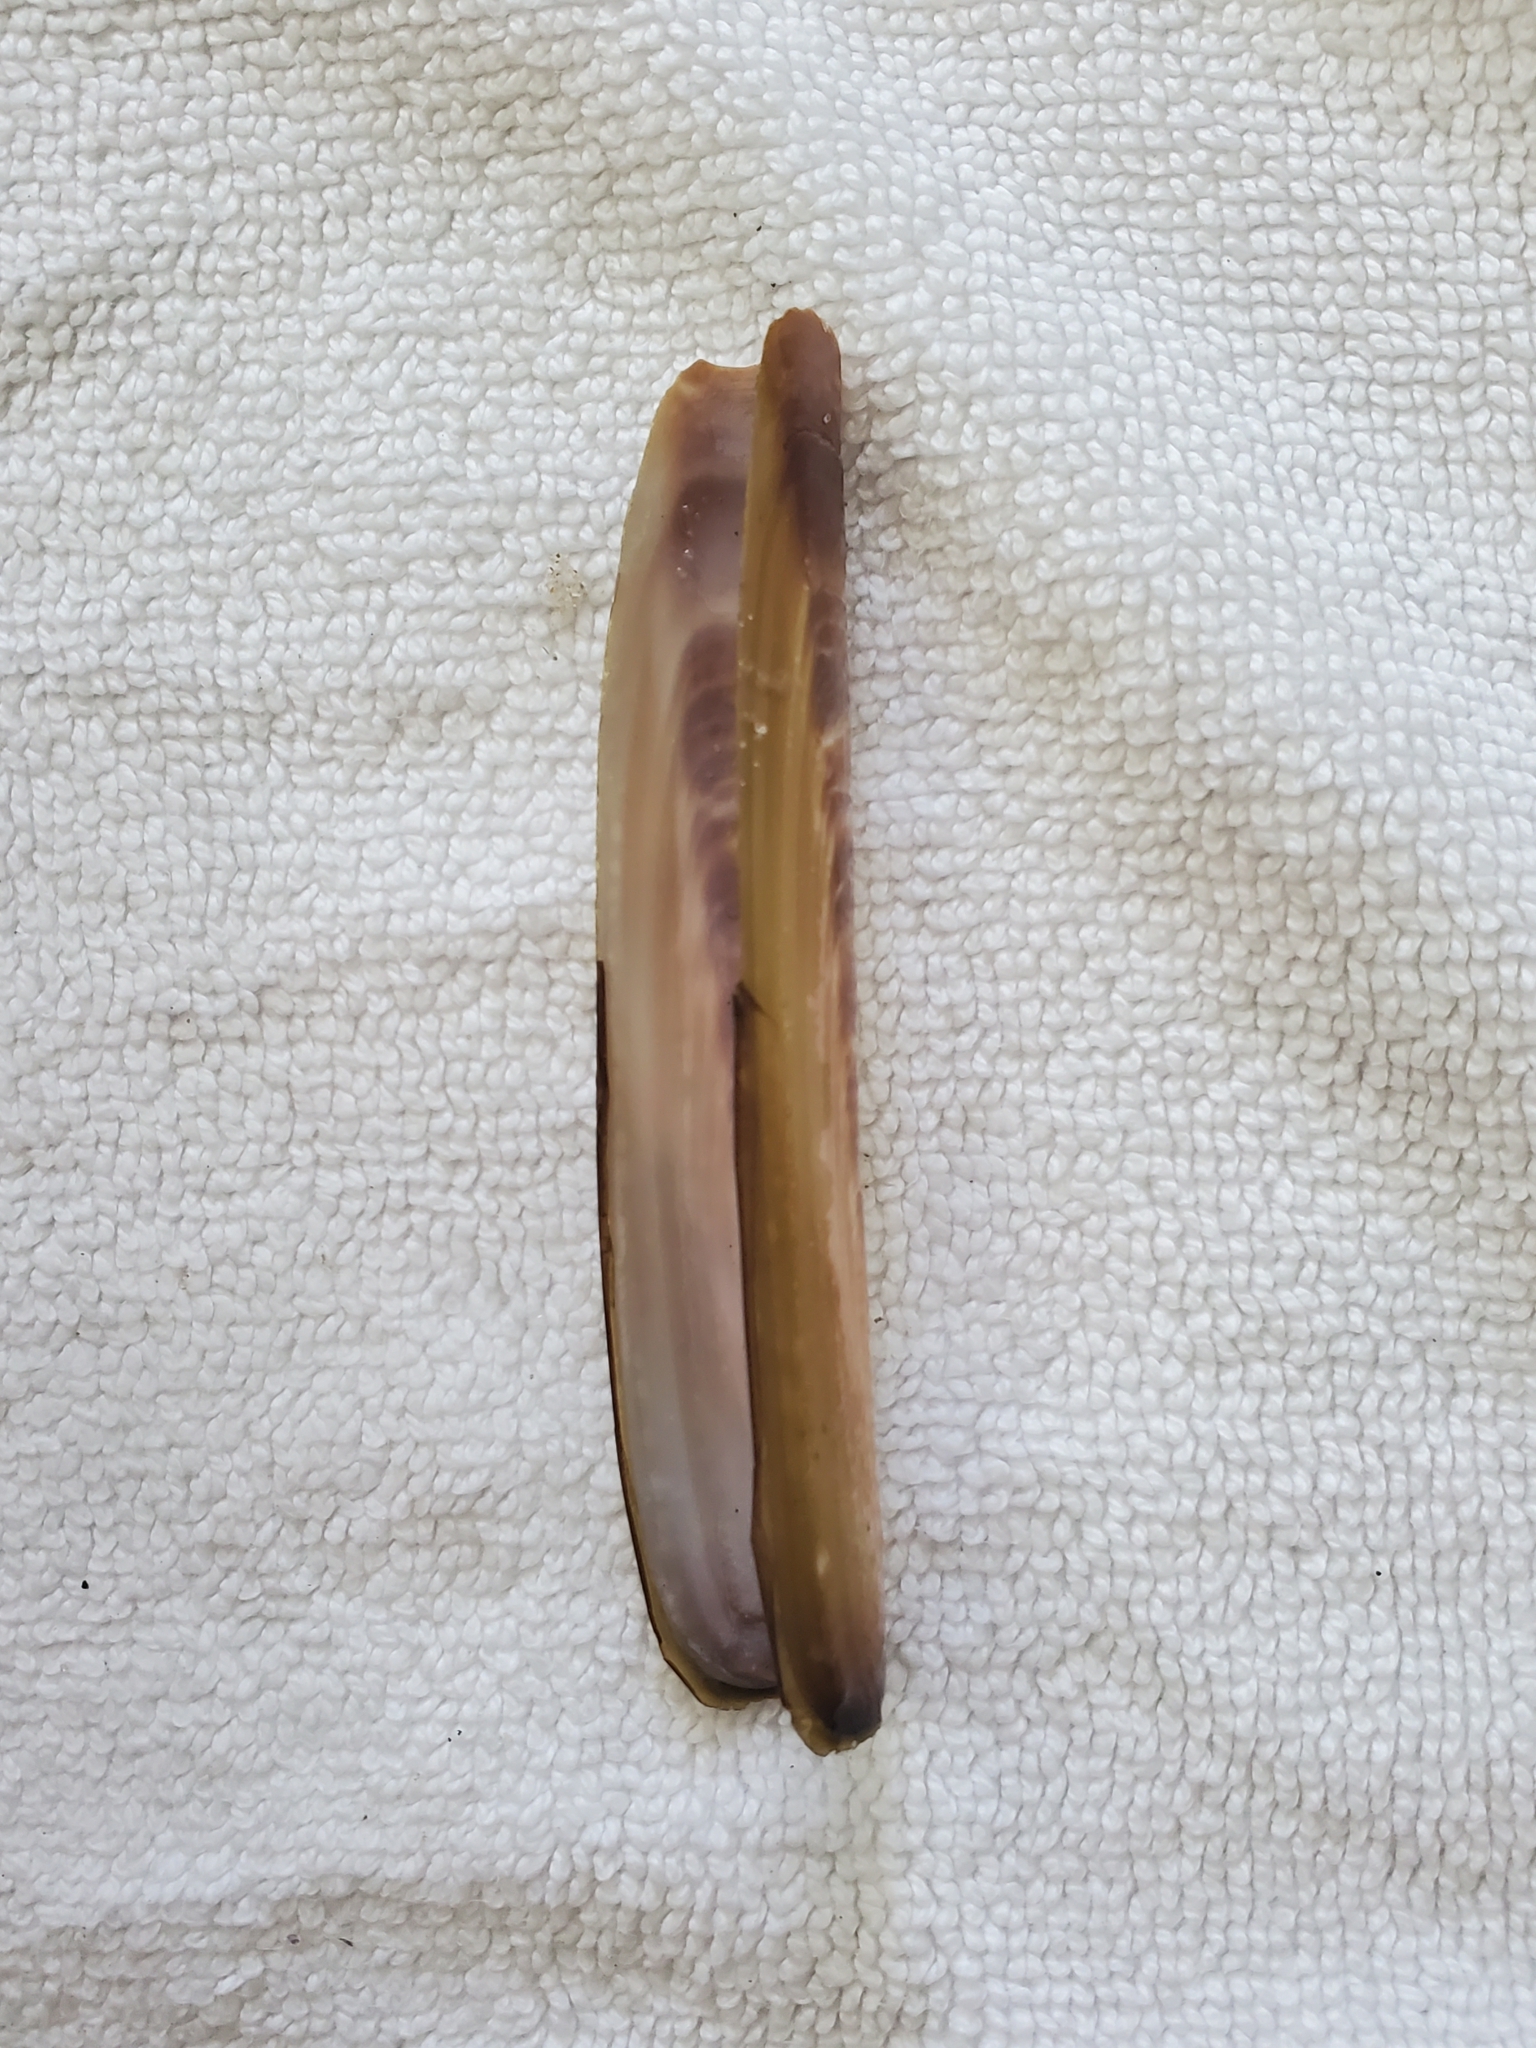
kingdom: Animalia
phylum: Mollusca
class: Bivalvia
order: Adapedonta
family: Pharidae
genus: Ensis
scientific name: Ensis leei
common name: American jack knife clam
